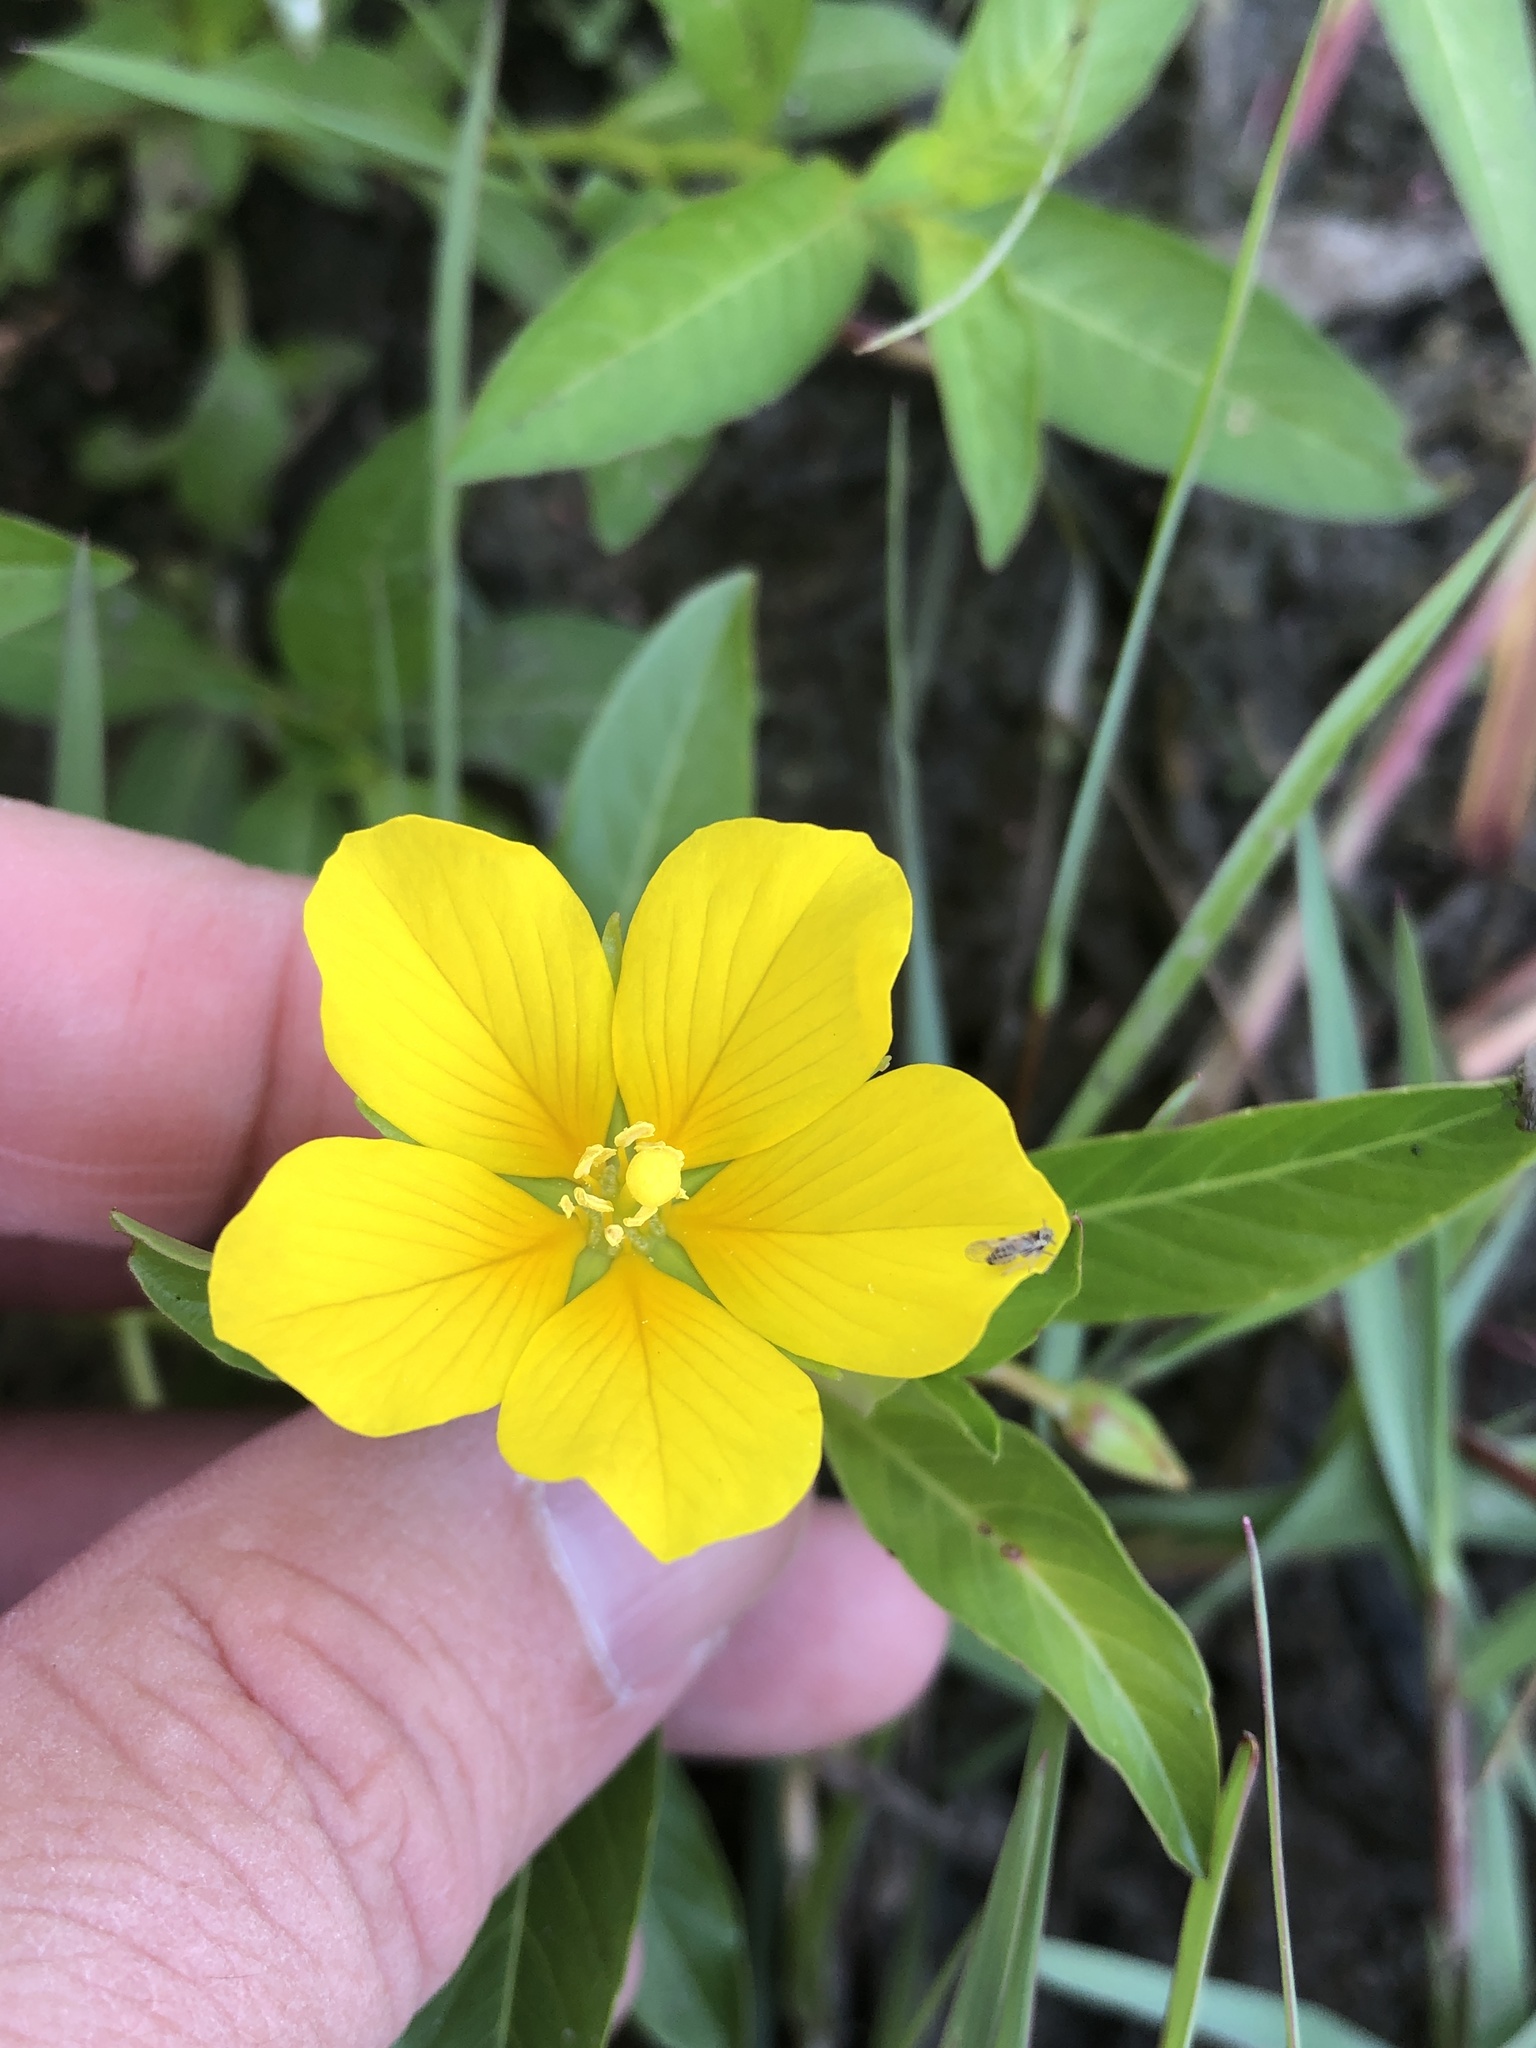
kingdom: Plantae
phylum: Tracheophyta
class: Magnoliopsida
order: Myrtales
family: Onagraceae
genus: Ludwigia
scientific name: Ludwigia peploides
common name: Floating primrose-willow
